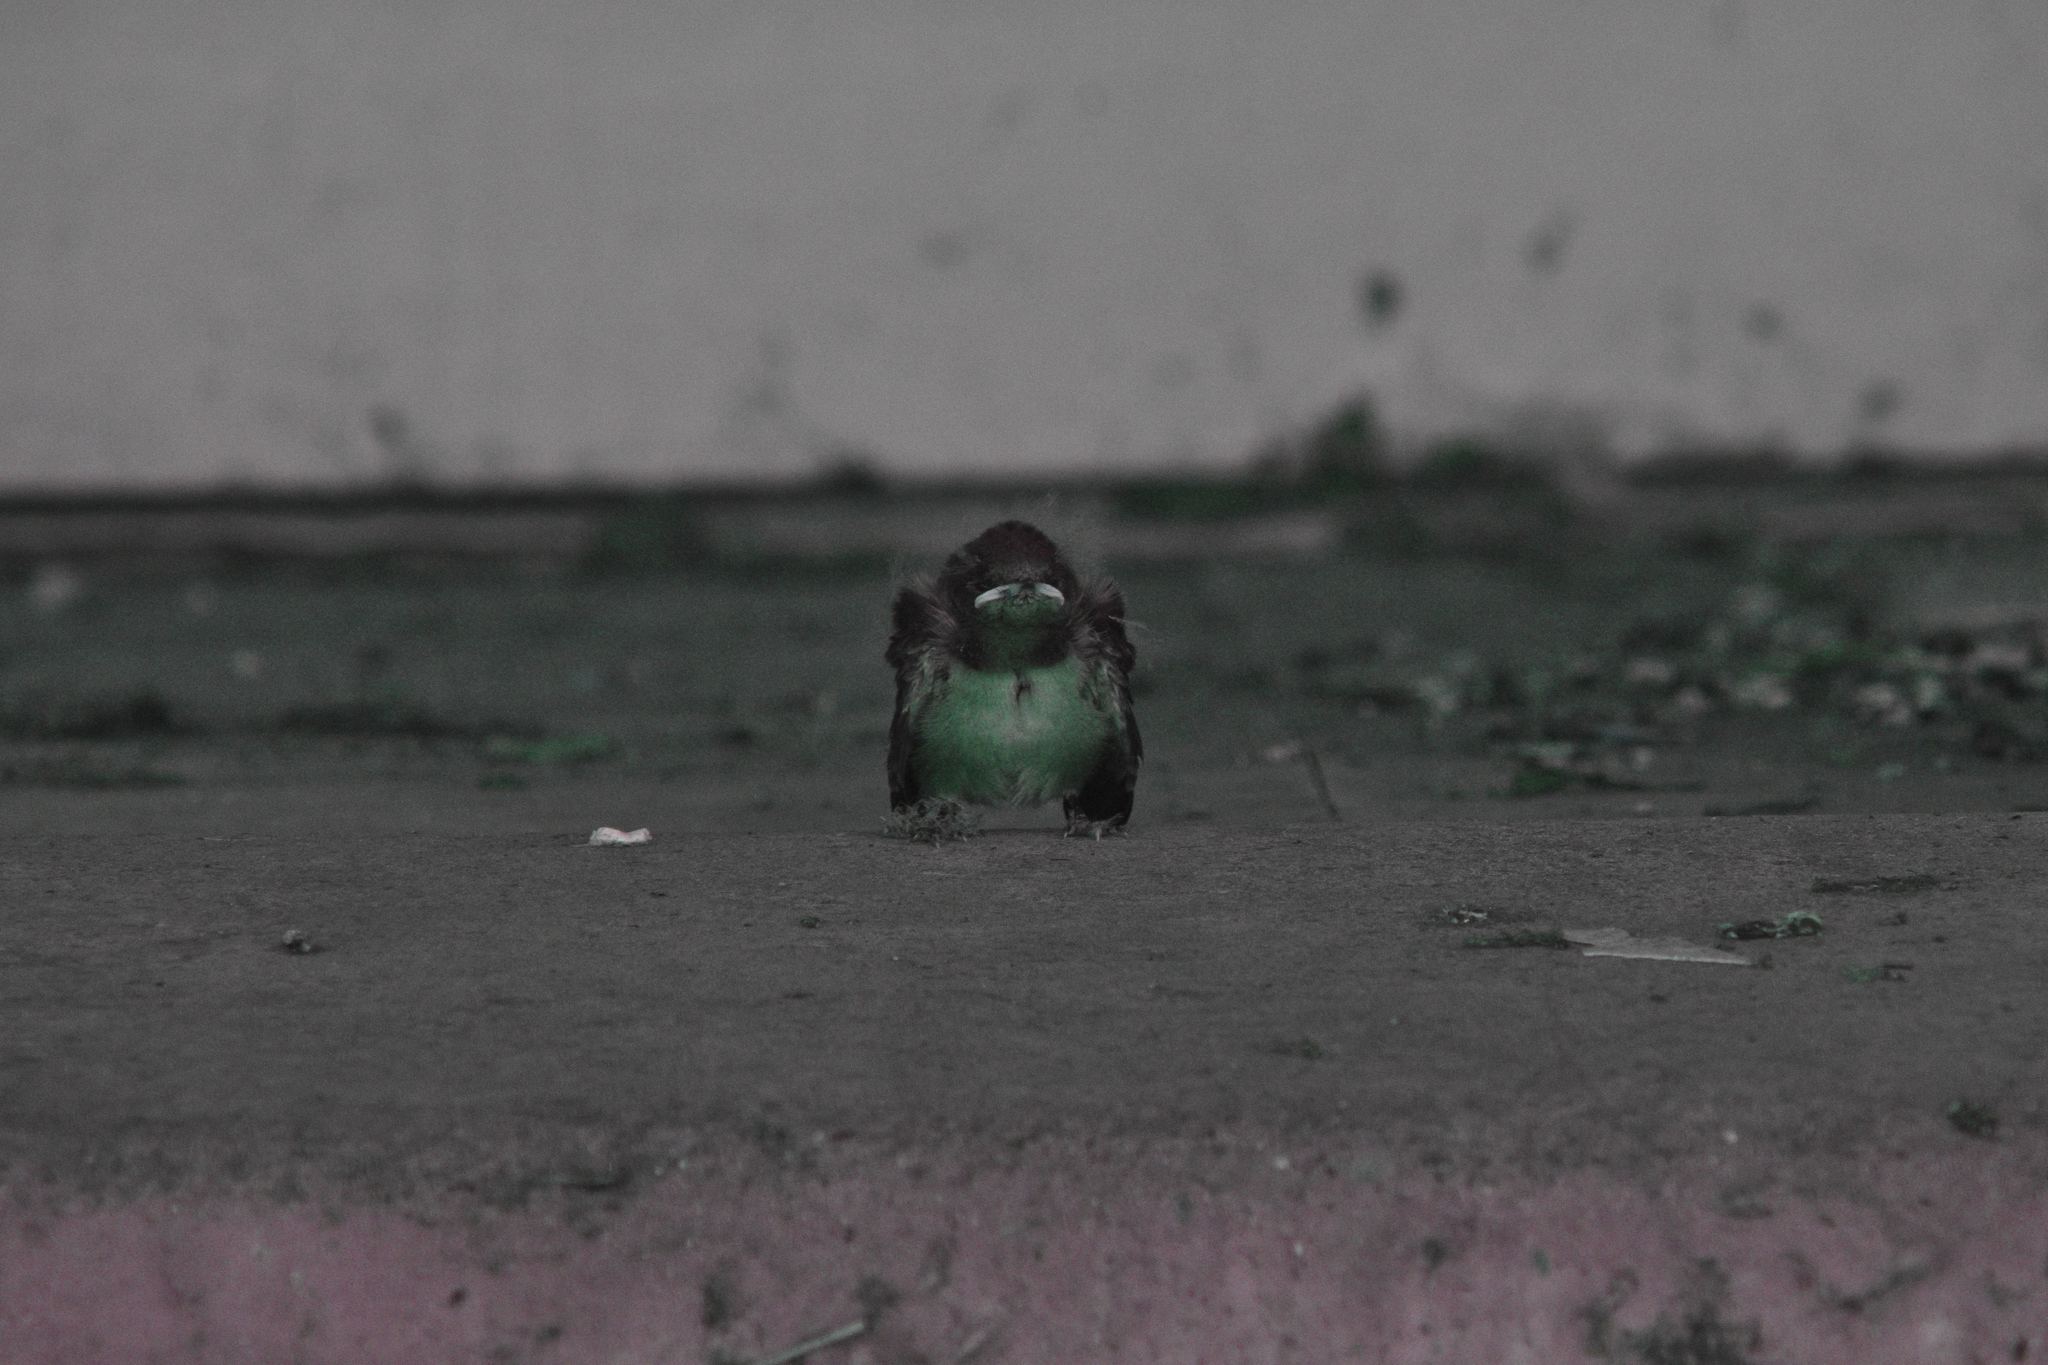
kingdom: Animalia
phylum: Chordata
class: Aves
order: Passeriformes
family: Hirundinidae
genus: Hirundo
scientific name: Hirundo rustica
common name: Barn swallow
